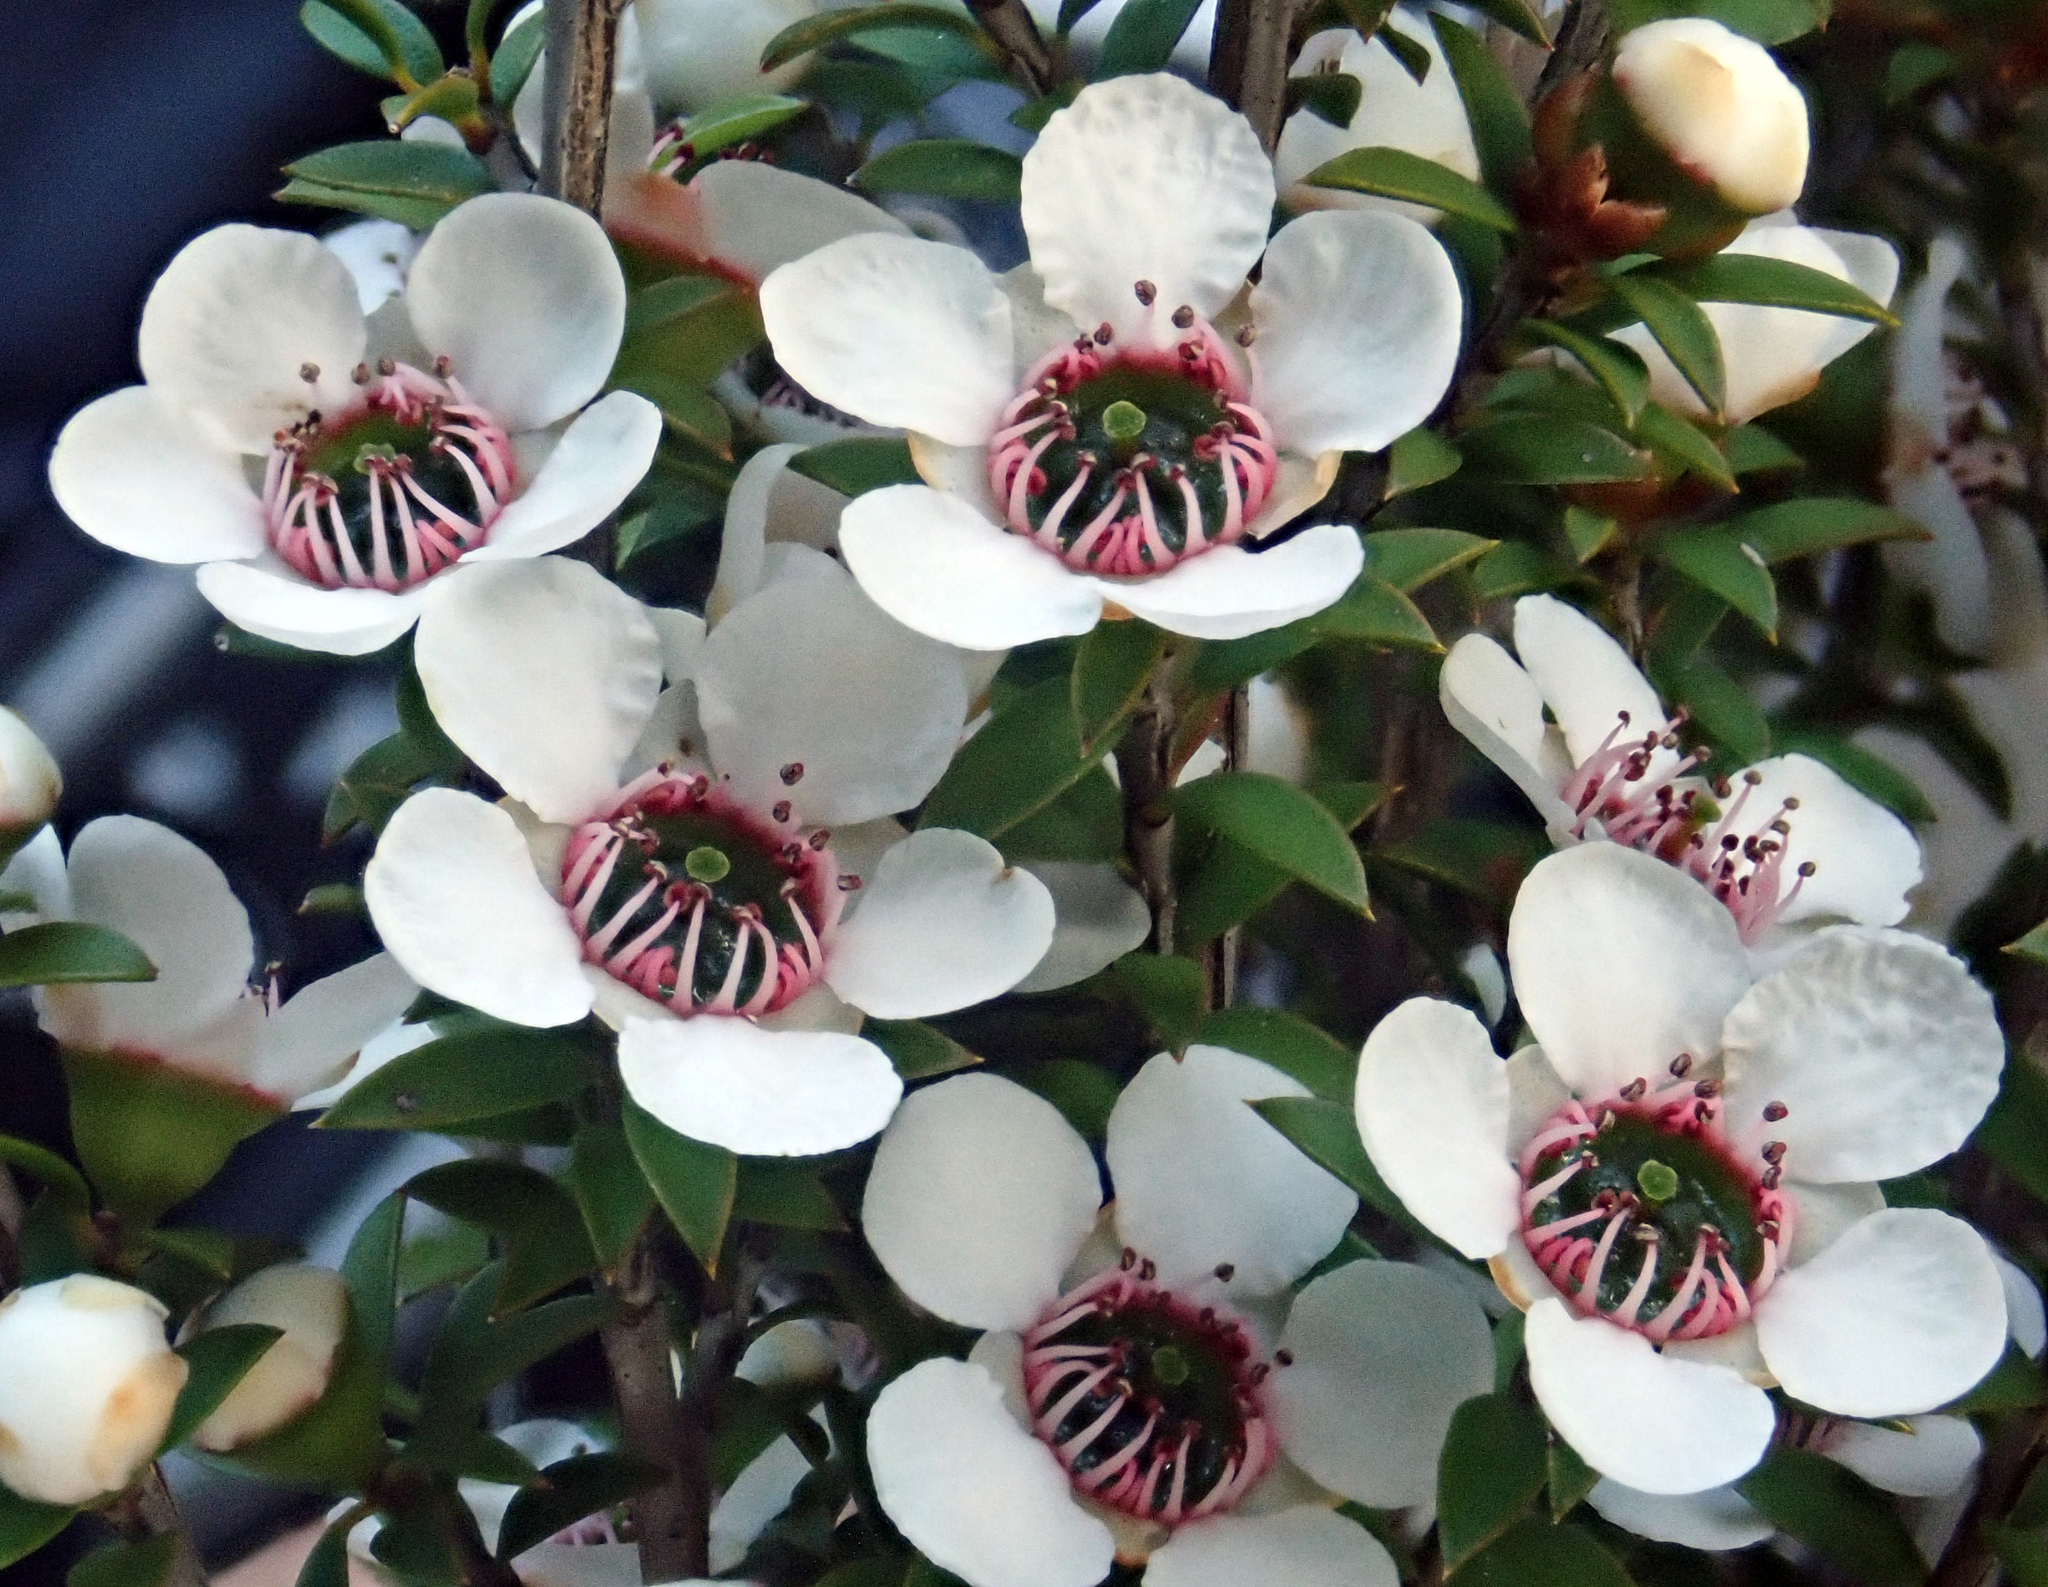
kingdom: Plantae
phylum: Tracheophyta
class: Magnoliopsida
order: Myrtales
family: Myrtaceae
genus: Leptospermum
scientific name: Leptospermum scoparium
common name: Broom tea-tree
